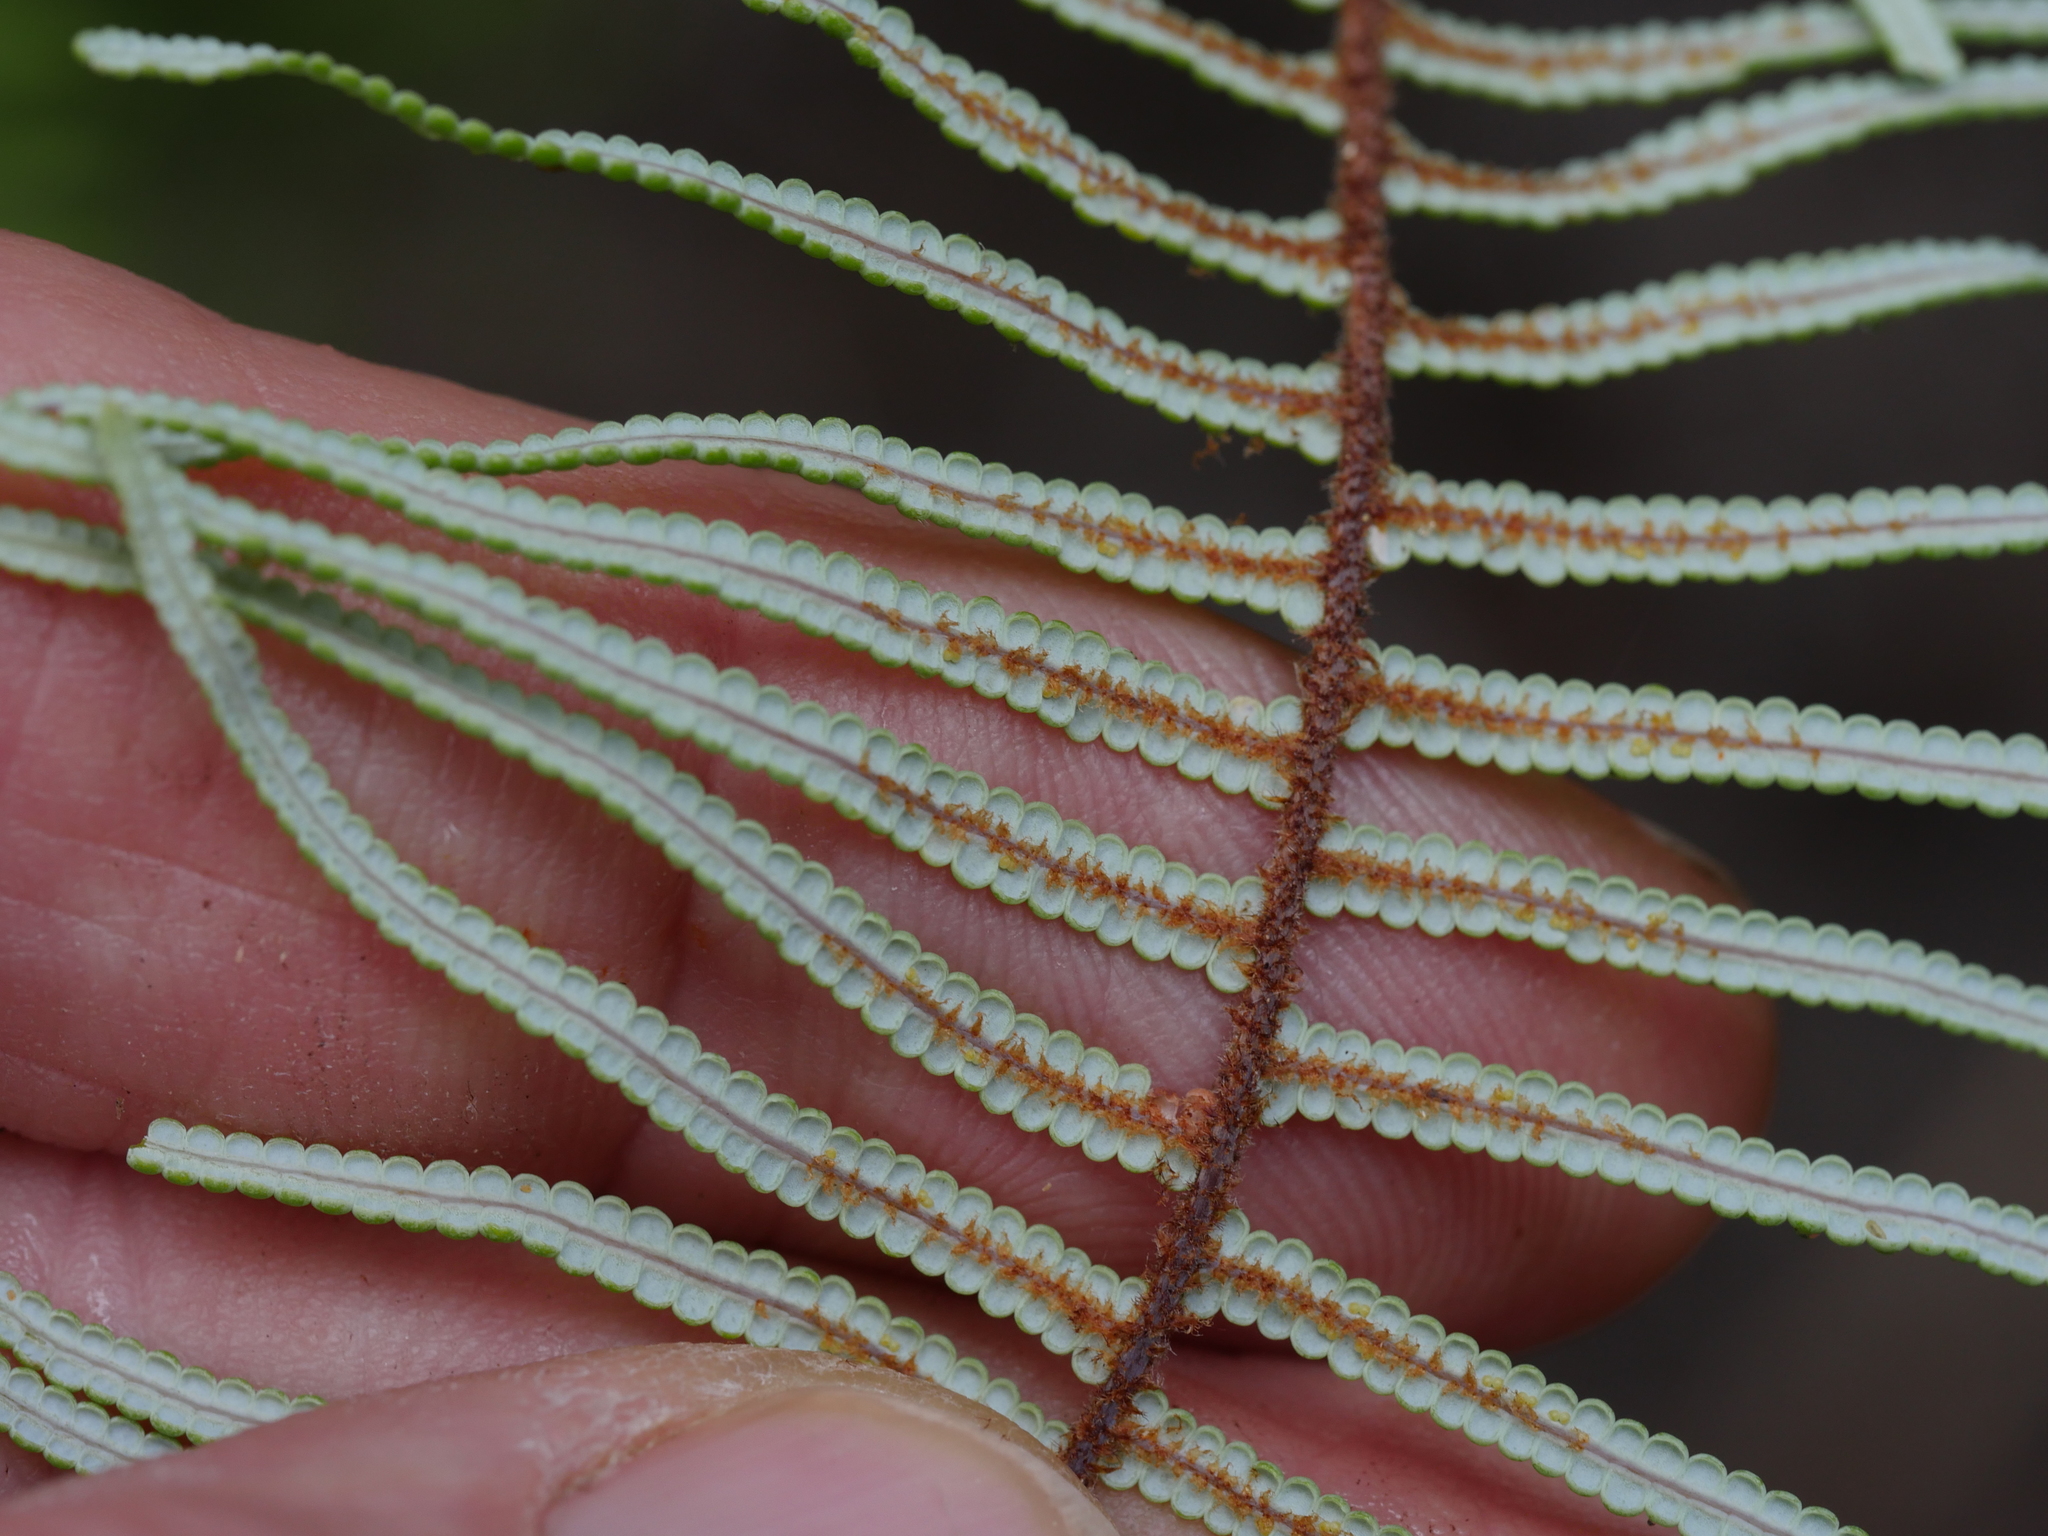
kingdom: Plantae
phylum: Tracheophyta
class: Polypodiopsida
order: Gleicheniales
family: Gleicheniaceae
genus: Gleichenia
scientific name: Gleichenia dicarpa
